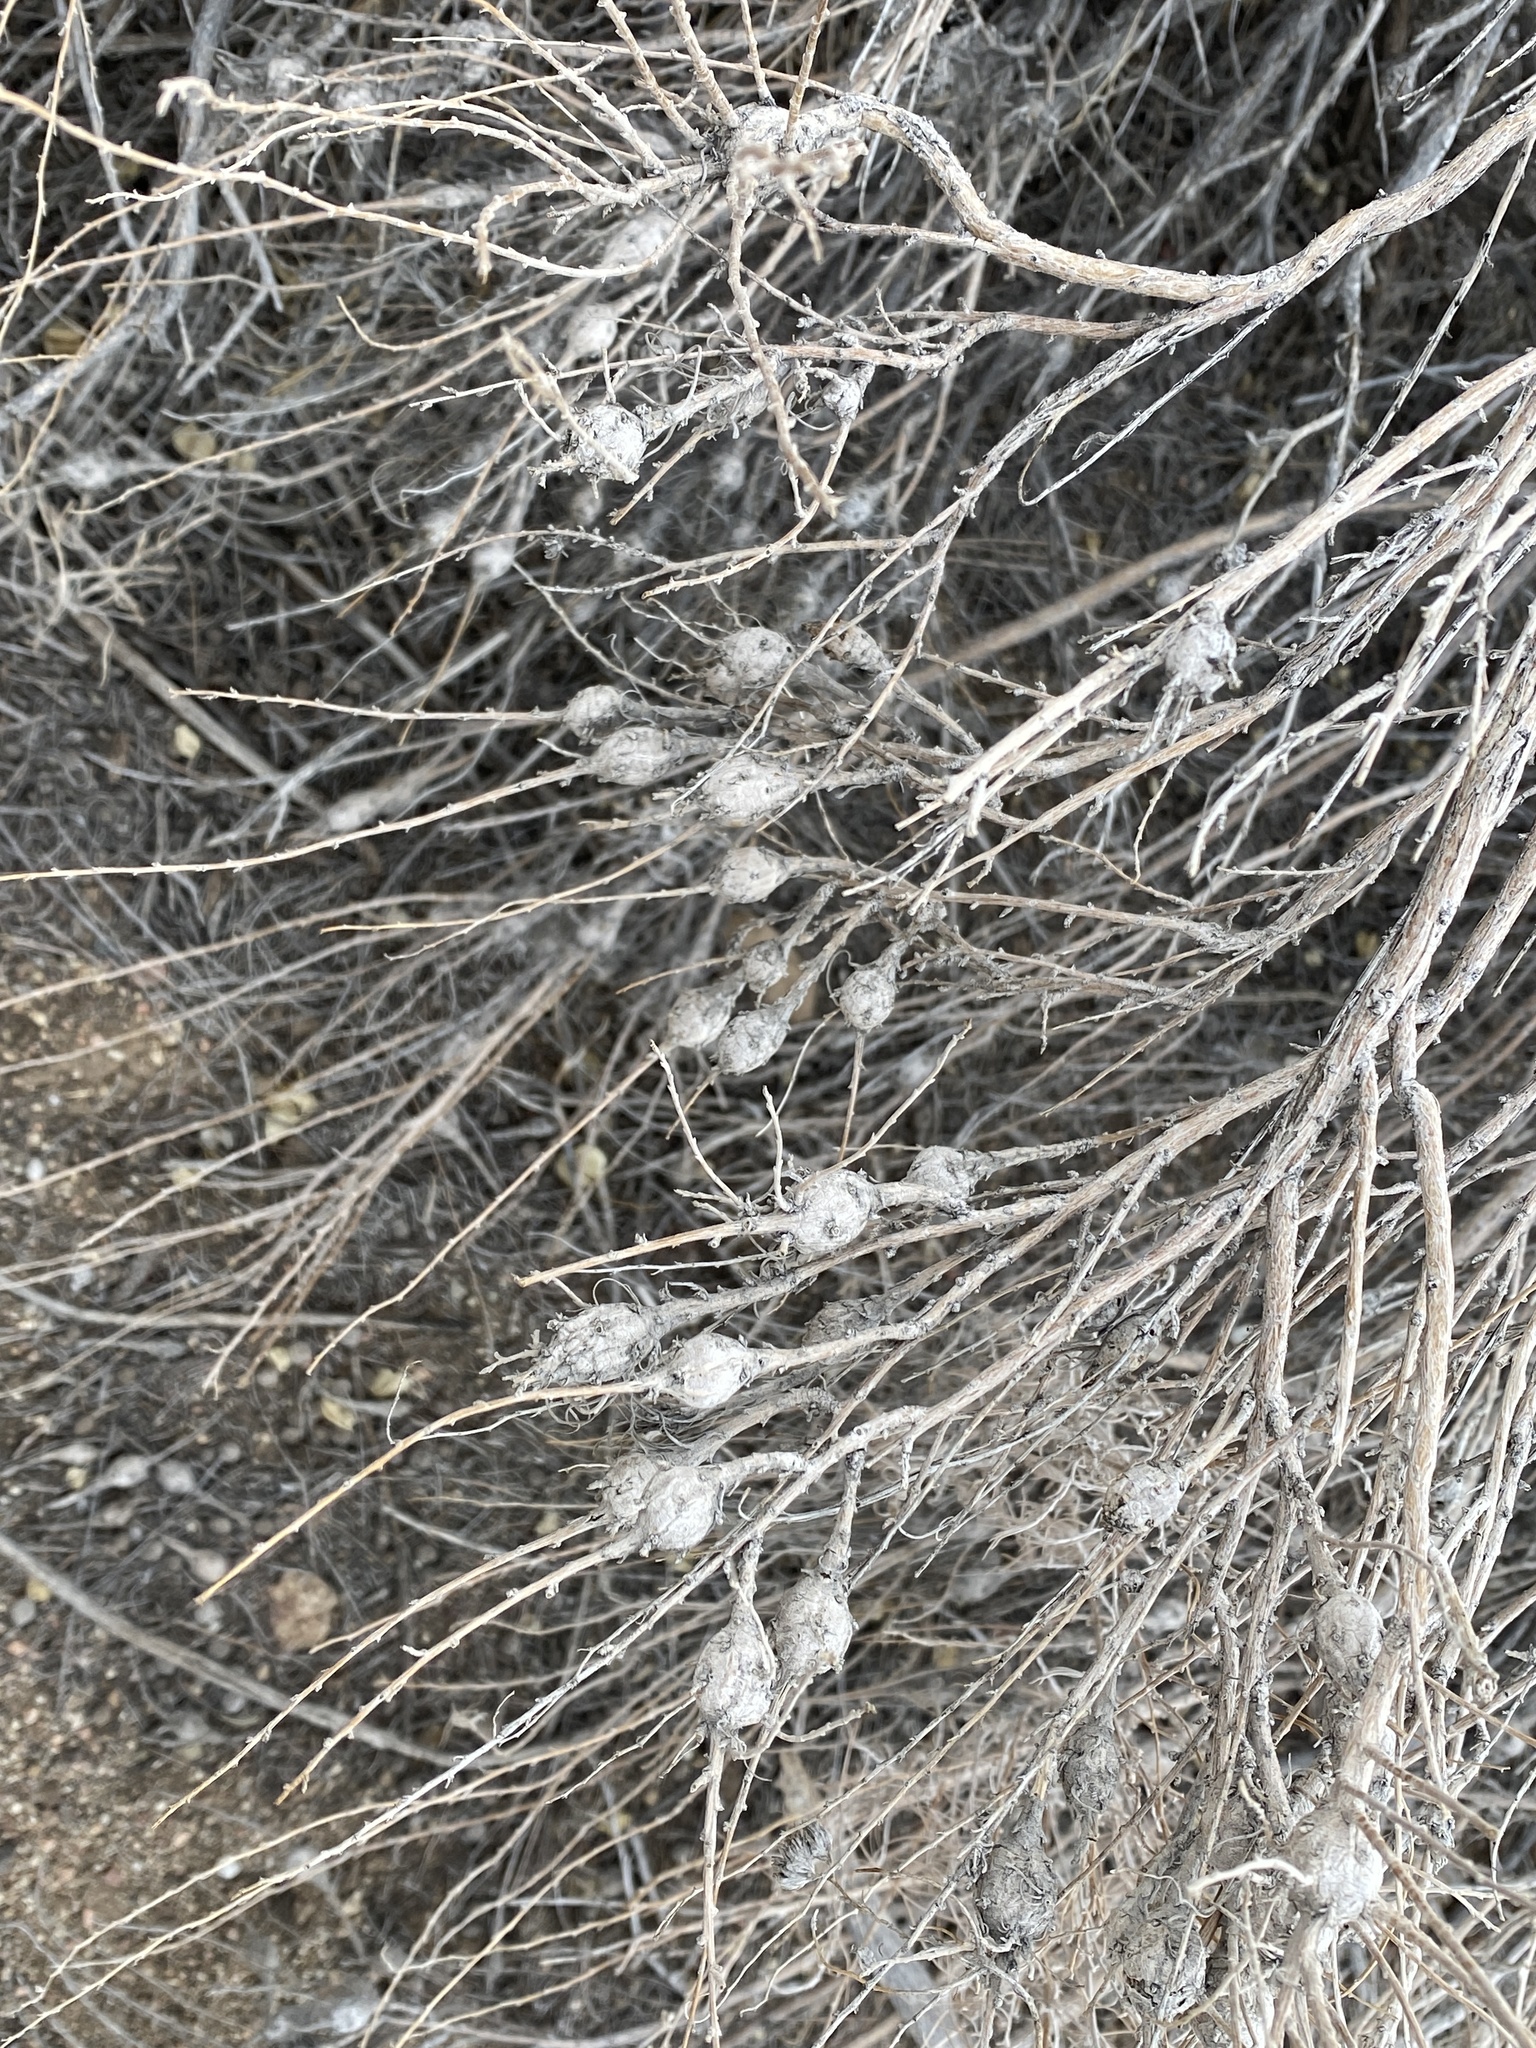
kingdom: Animalia
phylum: Arthropoda
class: Insecta
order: Diptera
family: Tephritidae
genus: Eutreta
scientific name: Eutreta diana
